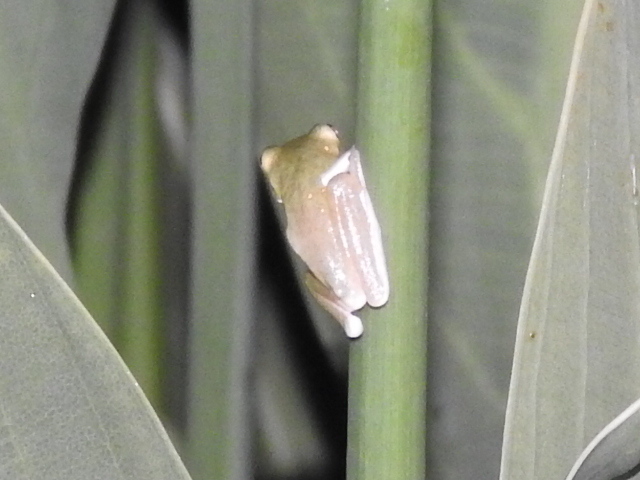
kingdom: Animalia
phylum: Chordata
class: Amphibia
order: Anura
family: Hylidae
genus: Dryophytes
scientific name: Dryophytes cinereus
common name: Green treefrog
